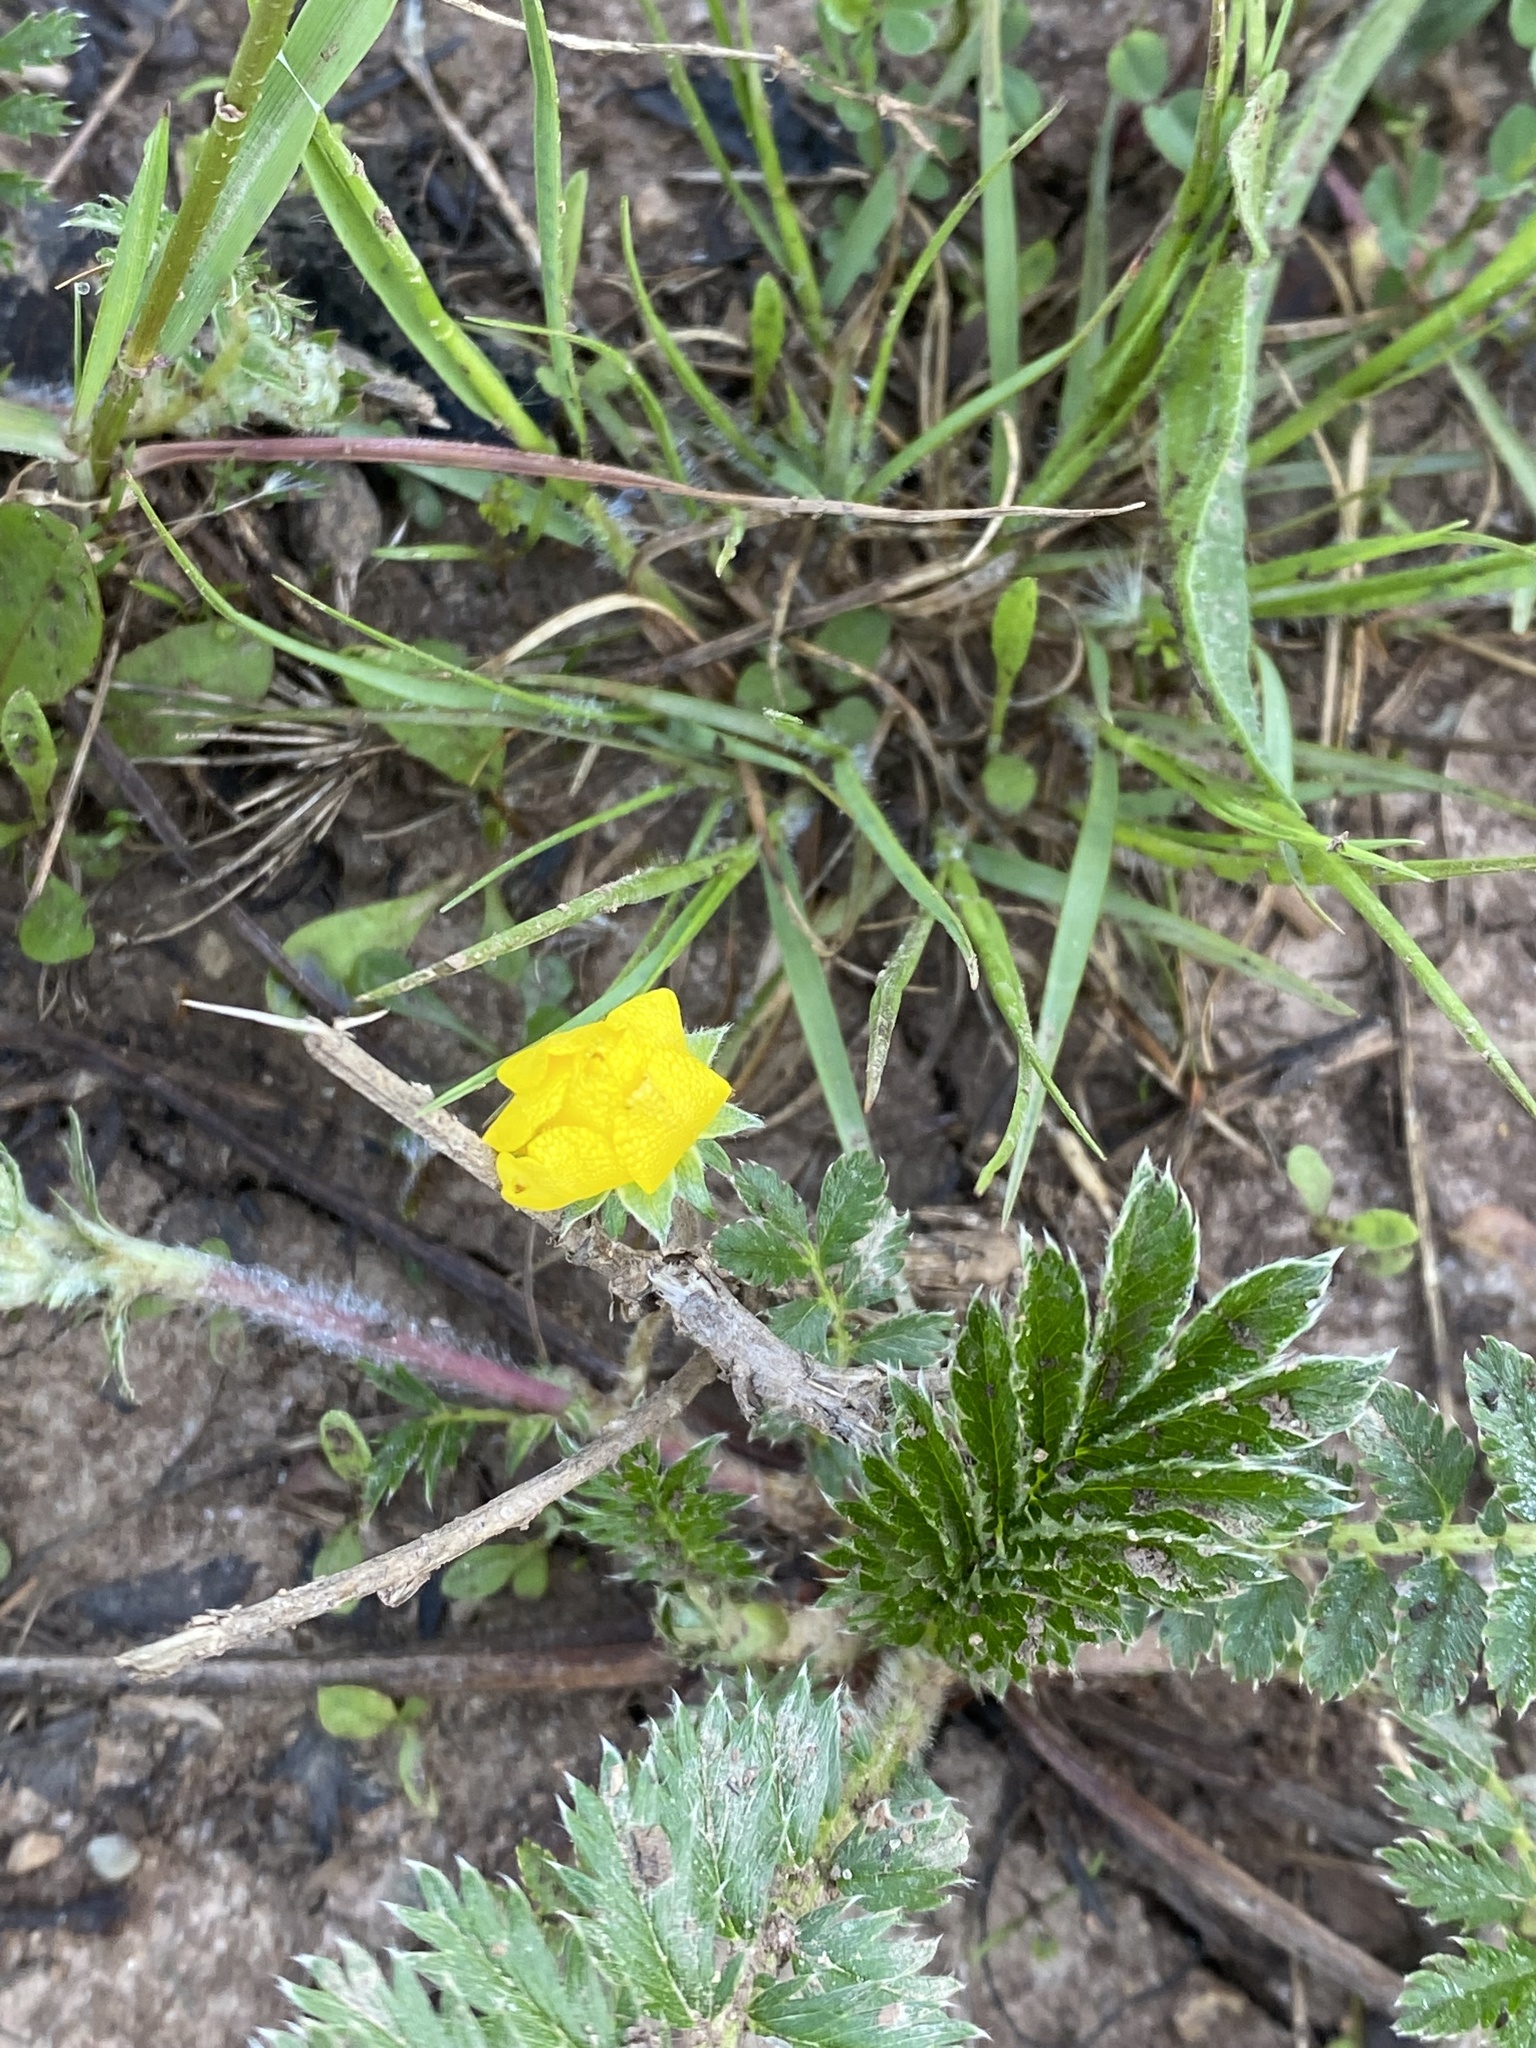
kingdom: Plantae
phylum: Tracheophyta
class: Magnoliopsida
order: Rosales
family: Rosaceae
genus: Argentina
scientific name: Argentina anserina
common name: Common silverweed
